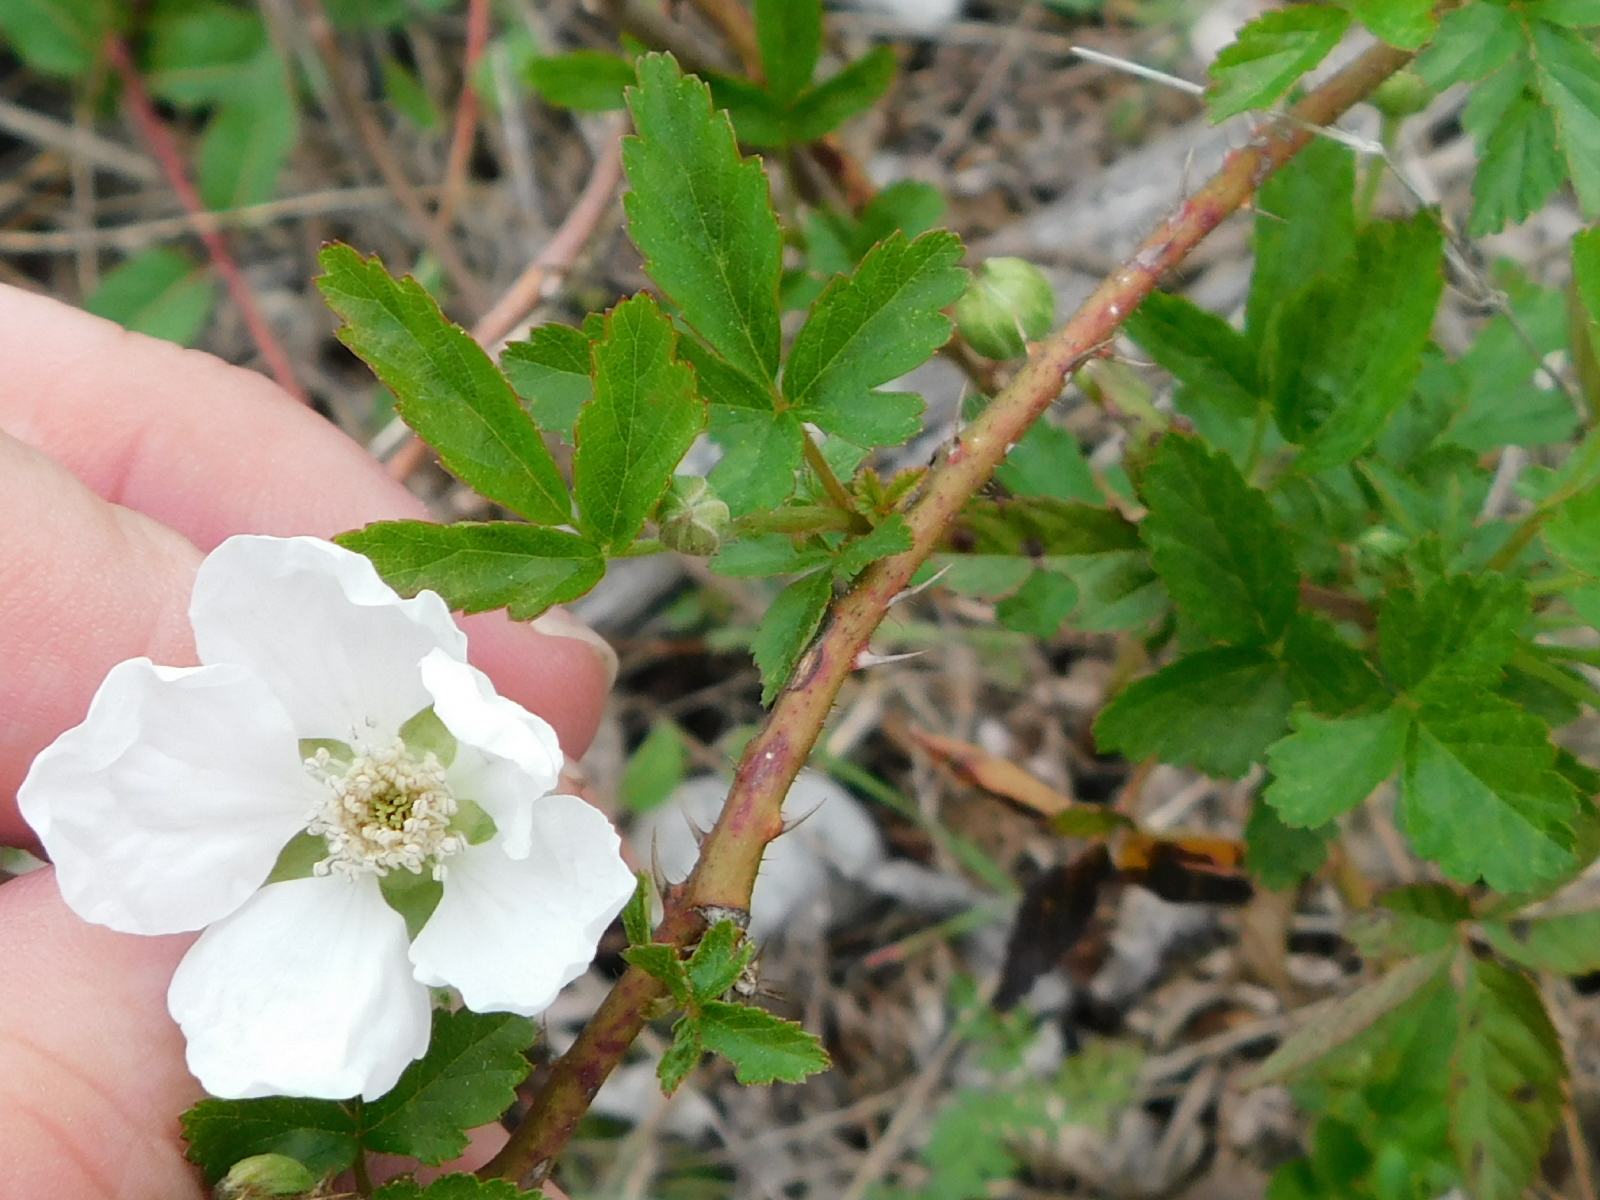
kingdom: Plantae
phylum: Tracheophyta
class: Magnoliopsida
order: Rosales
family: Rosaceae
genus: Rubus
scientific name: Rubus trivialis
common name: Southern dewberry
